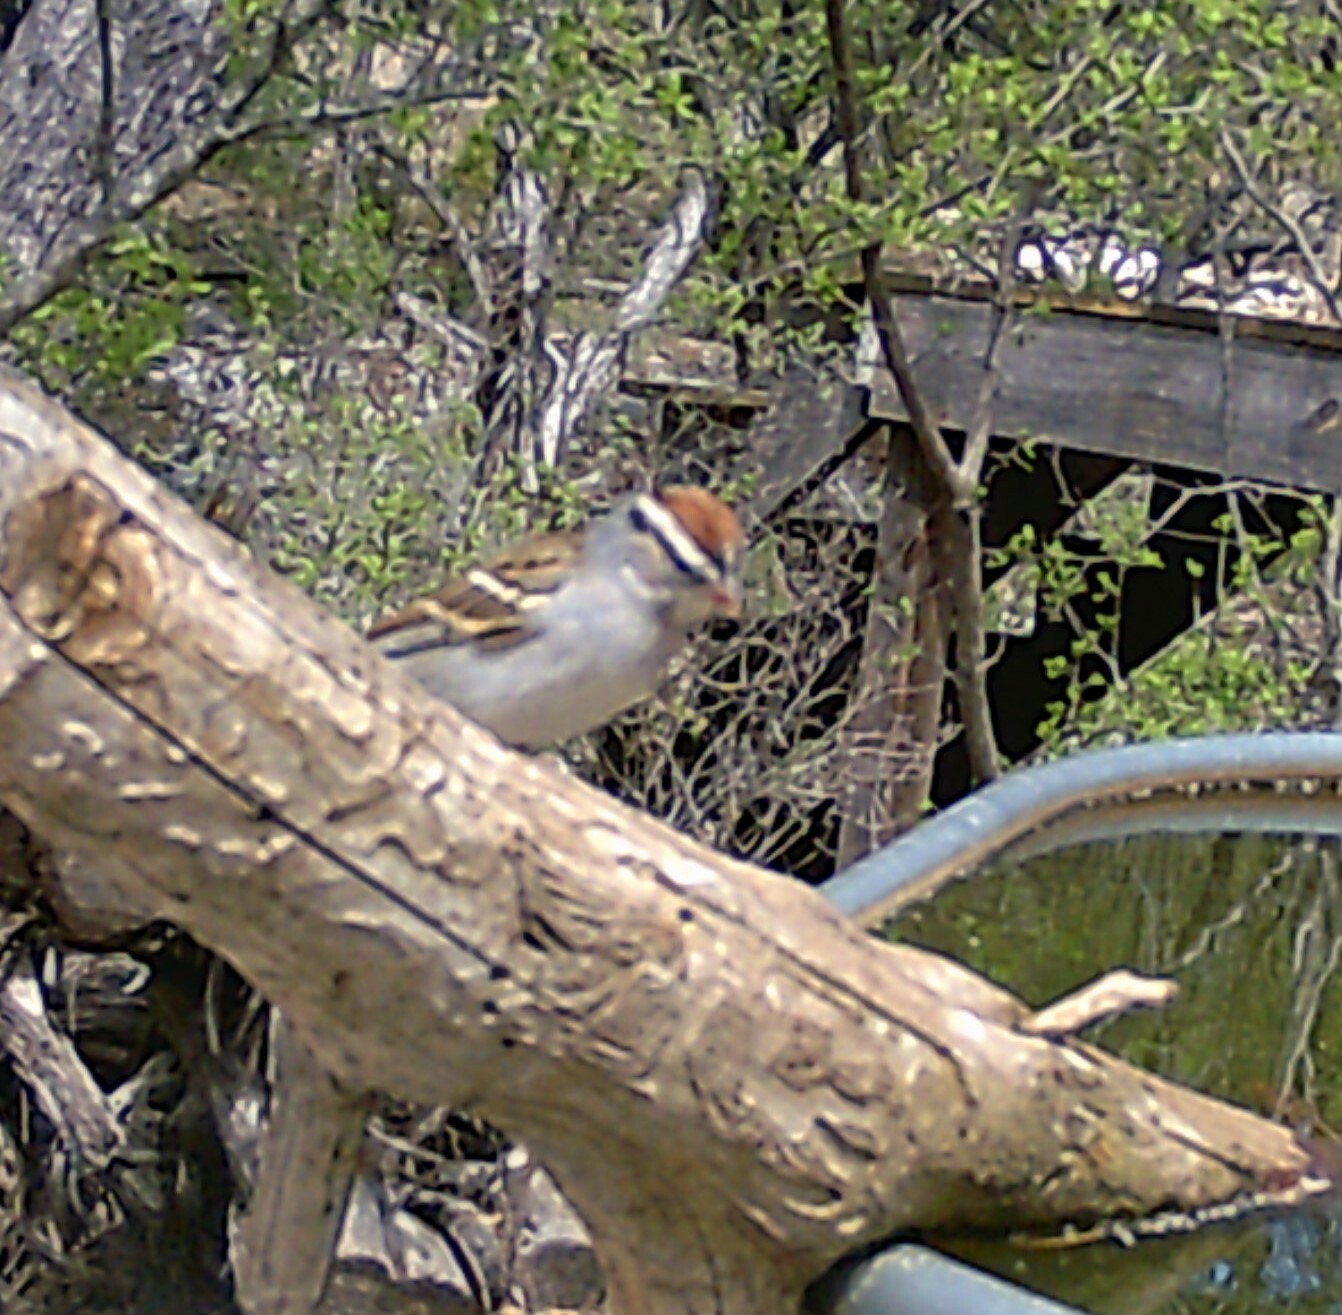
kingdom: Animalia
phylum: Chordata
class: Aves
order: Passeriformes
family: Passerellidae
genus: Spizella
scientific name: Spizella passerina
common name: Chipping sparrow
